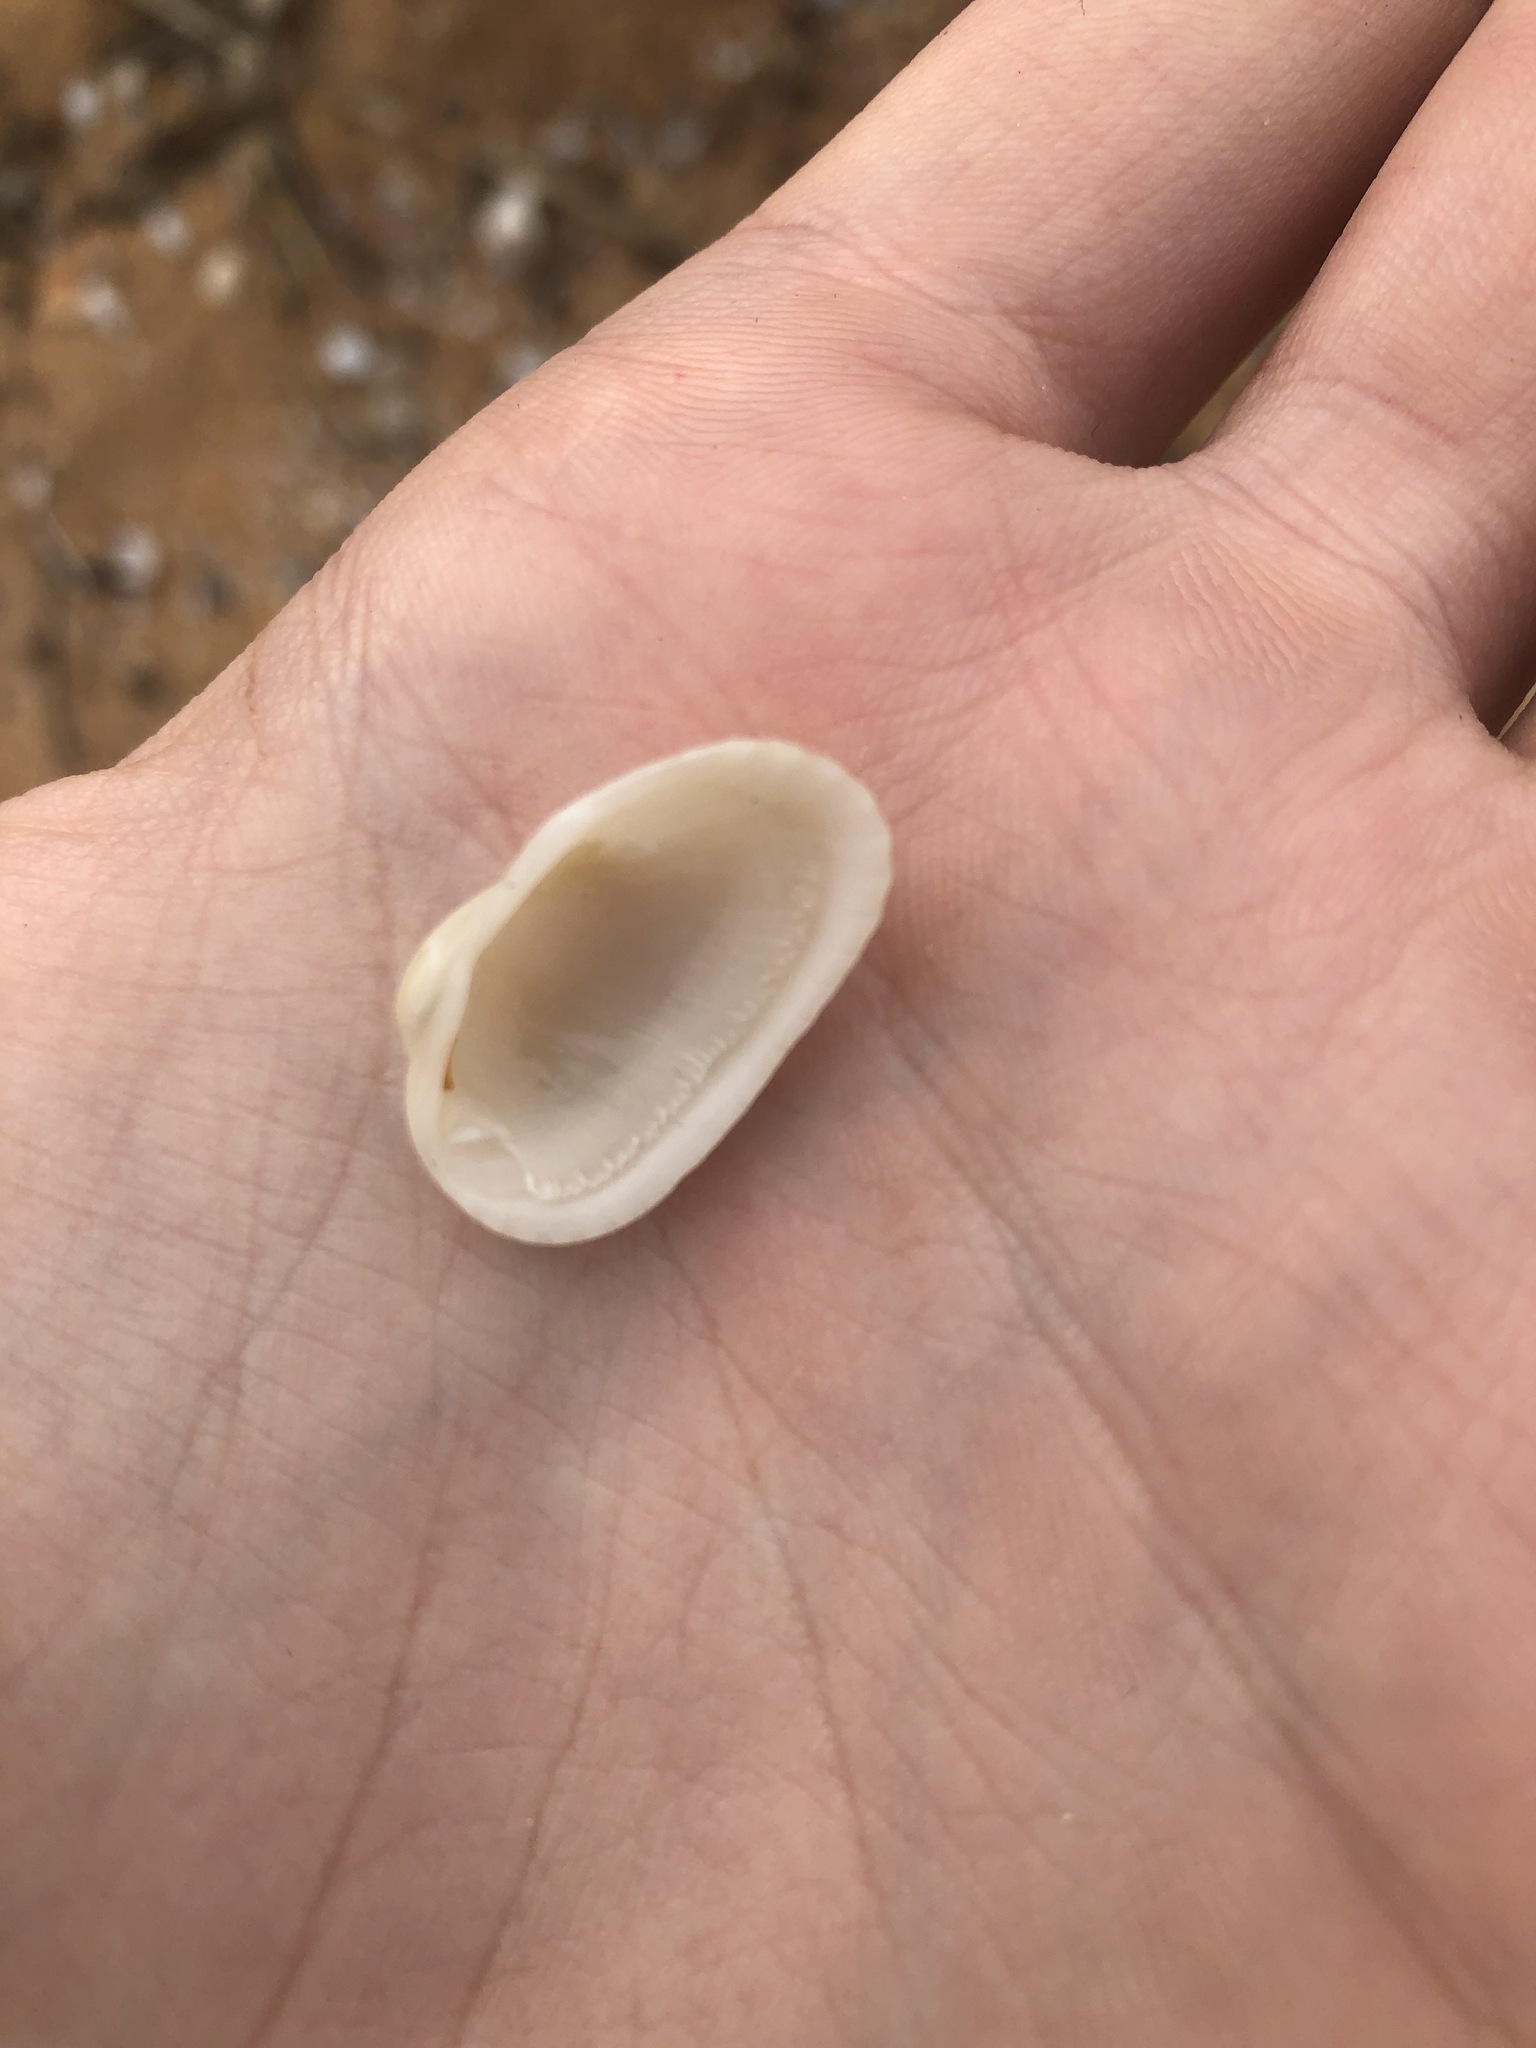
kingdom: Animalia
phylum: Mollusca
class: Bivalvia
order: Arcida
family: Arcidae
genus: Anadara
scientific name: Anadara transversa
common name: Transverse ark
